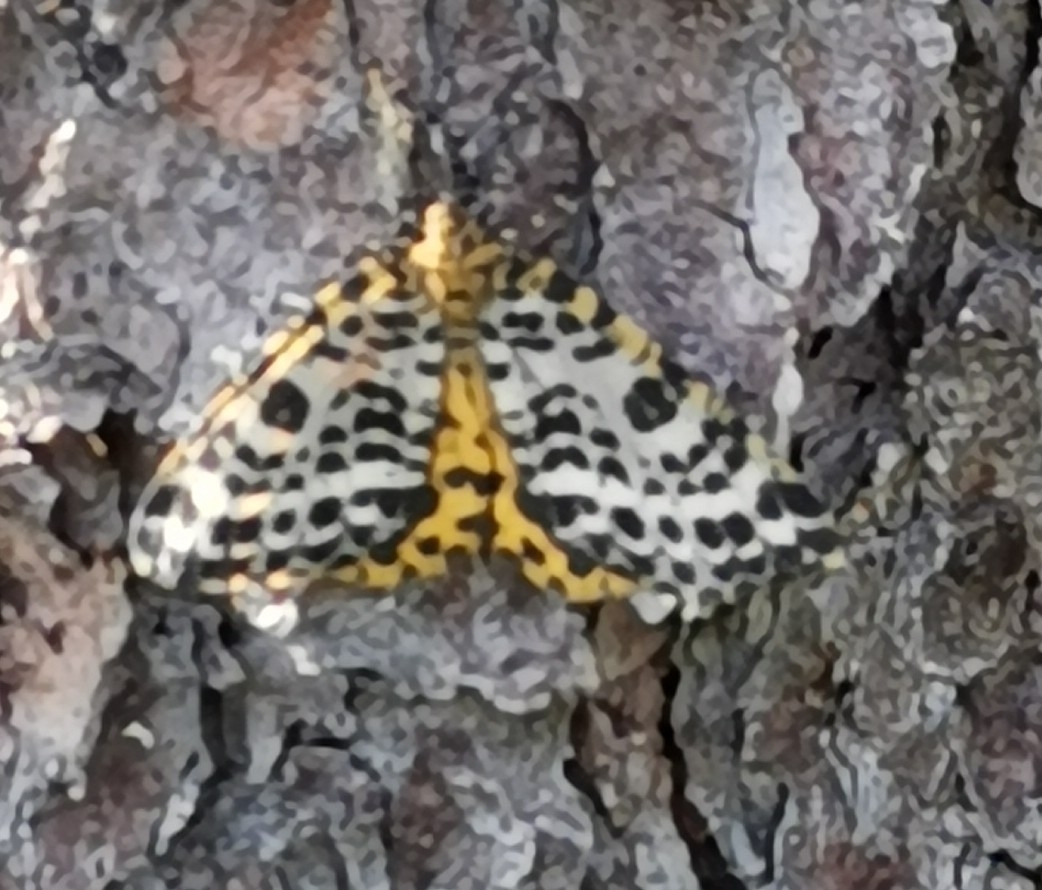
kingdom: Animalia
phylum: Arthropoda
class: Insecta
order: Lepidoptera
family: Geometridae
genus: Arichanna
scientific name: Arichanna melanaria
